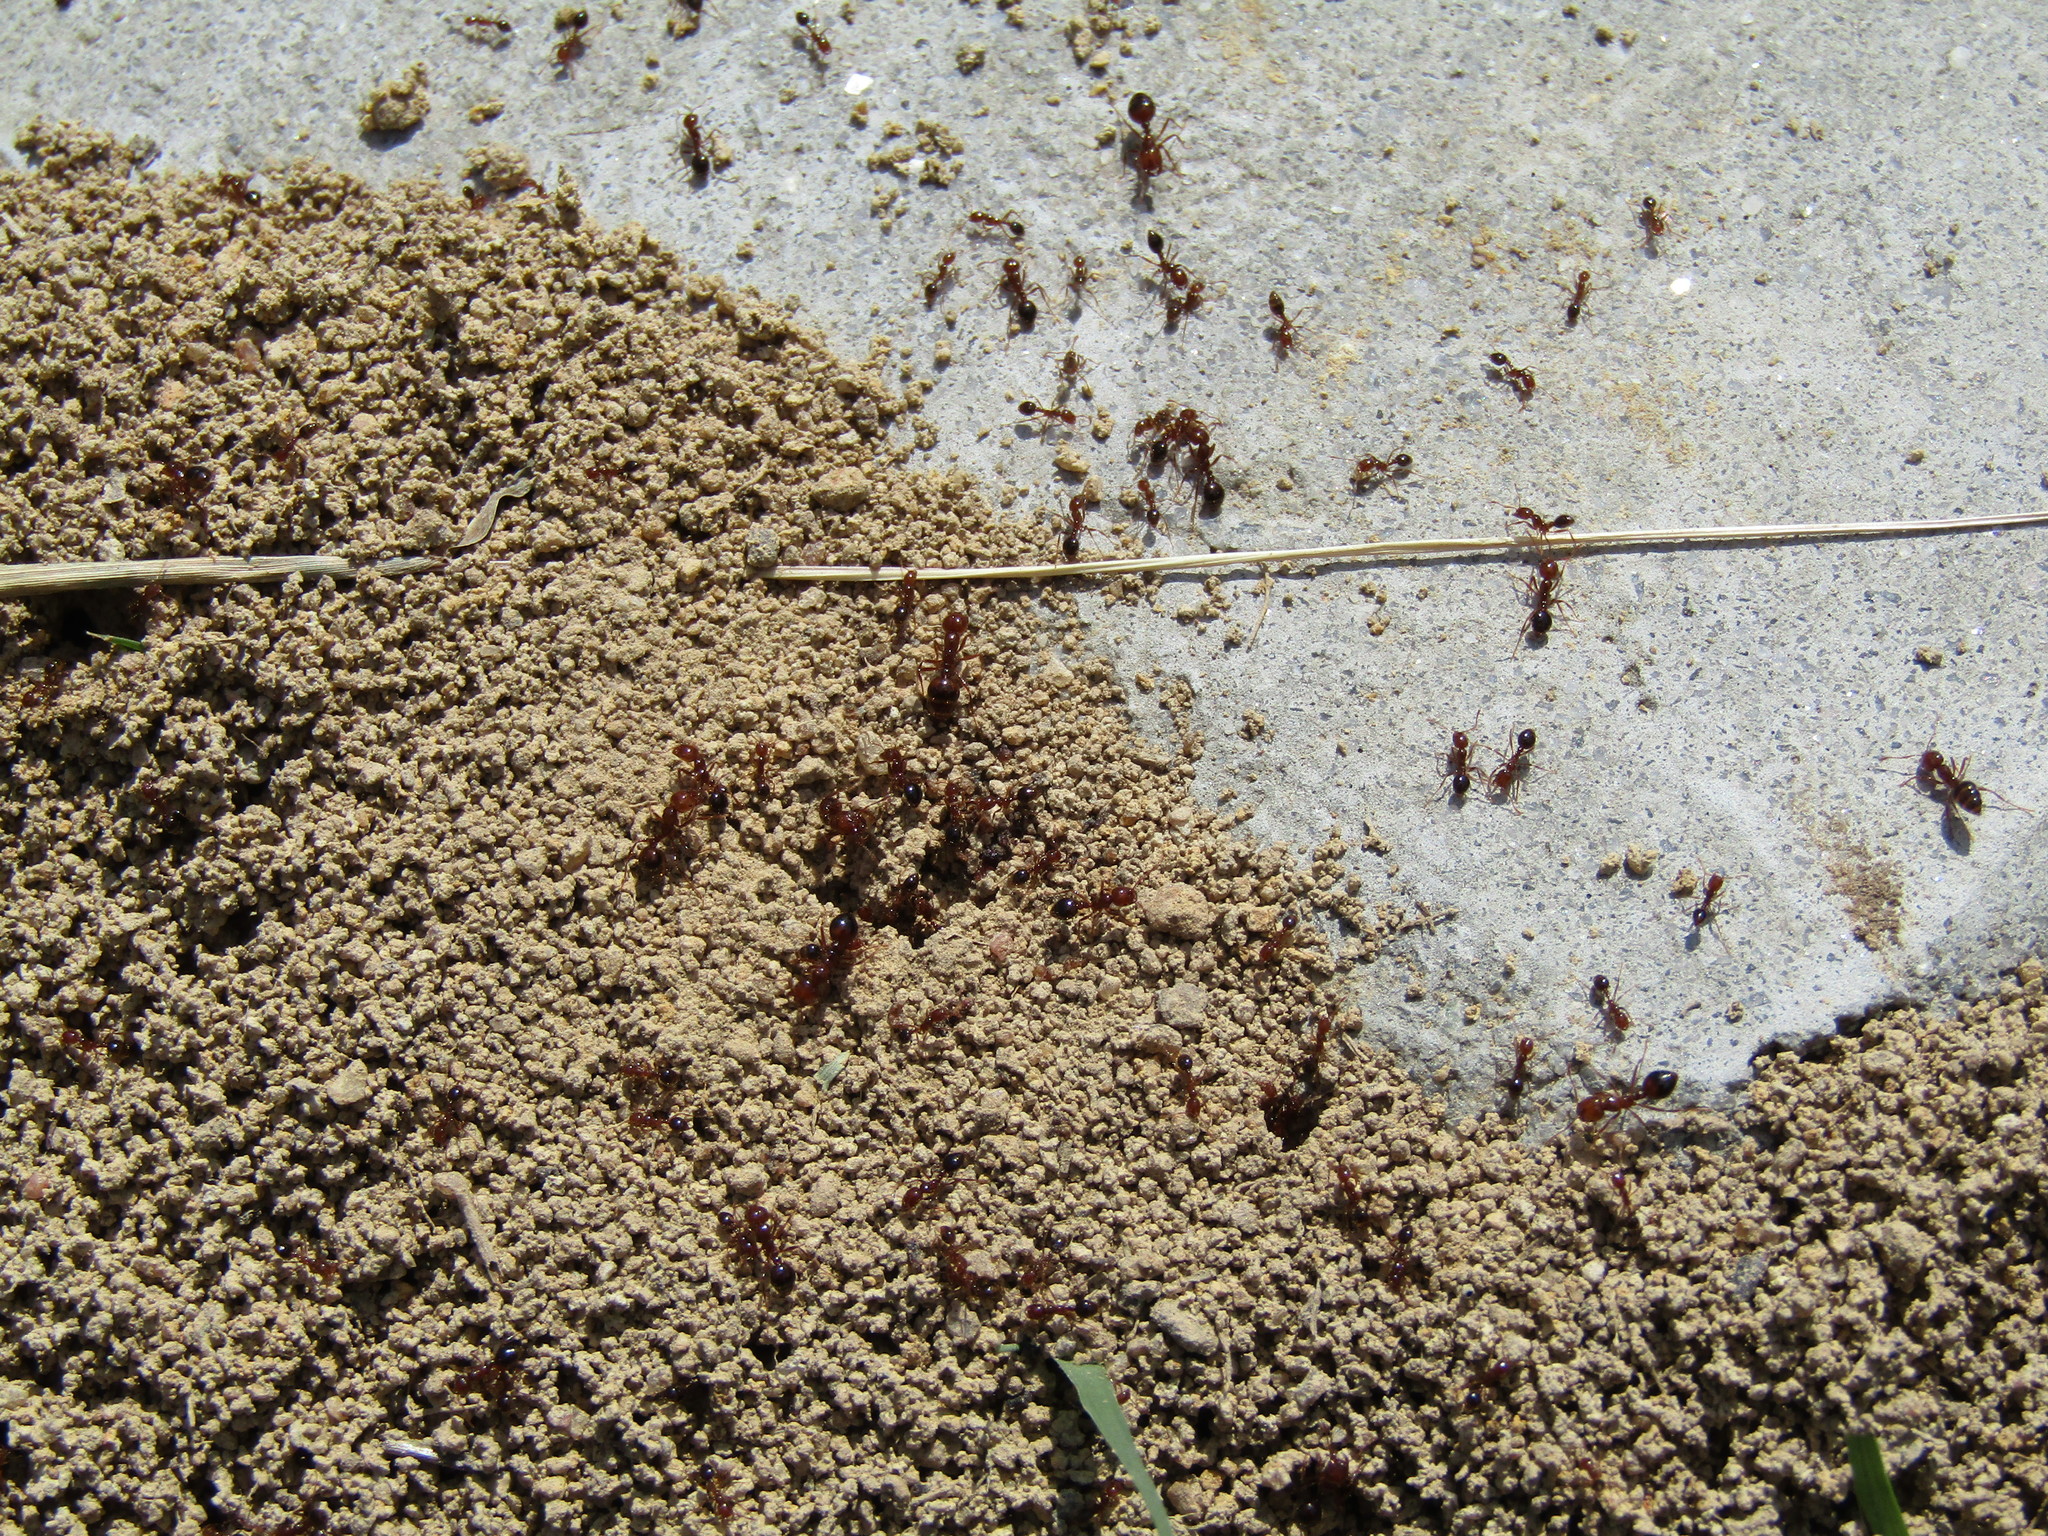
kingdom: Animalia
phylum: Arthropoda
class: Insecta
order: Hymenoptera
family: Formicidae
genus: Solenopsis
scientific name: Solenopsis invicta
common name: Red imported fire ant
